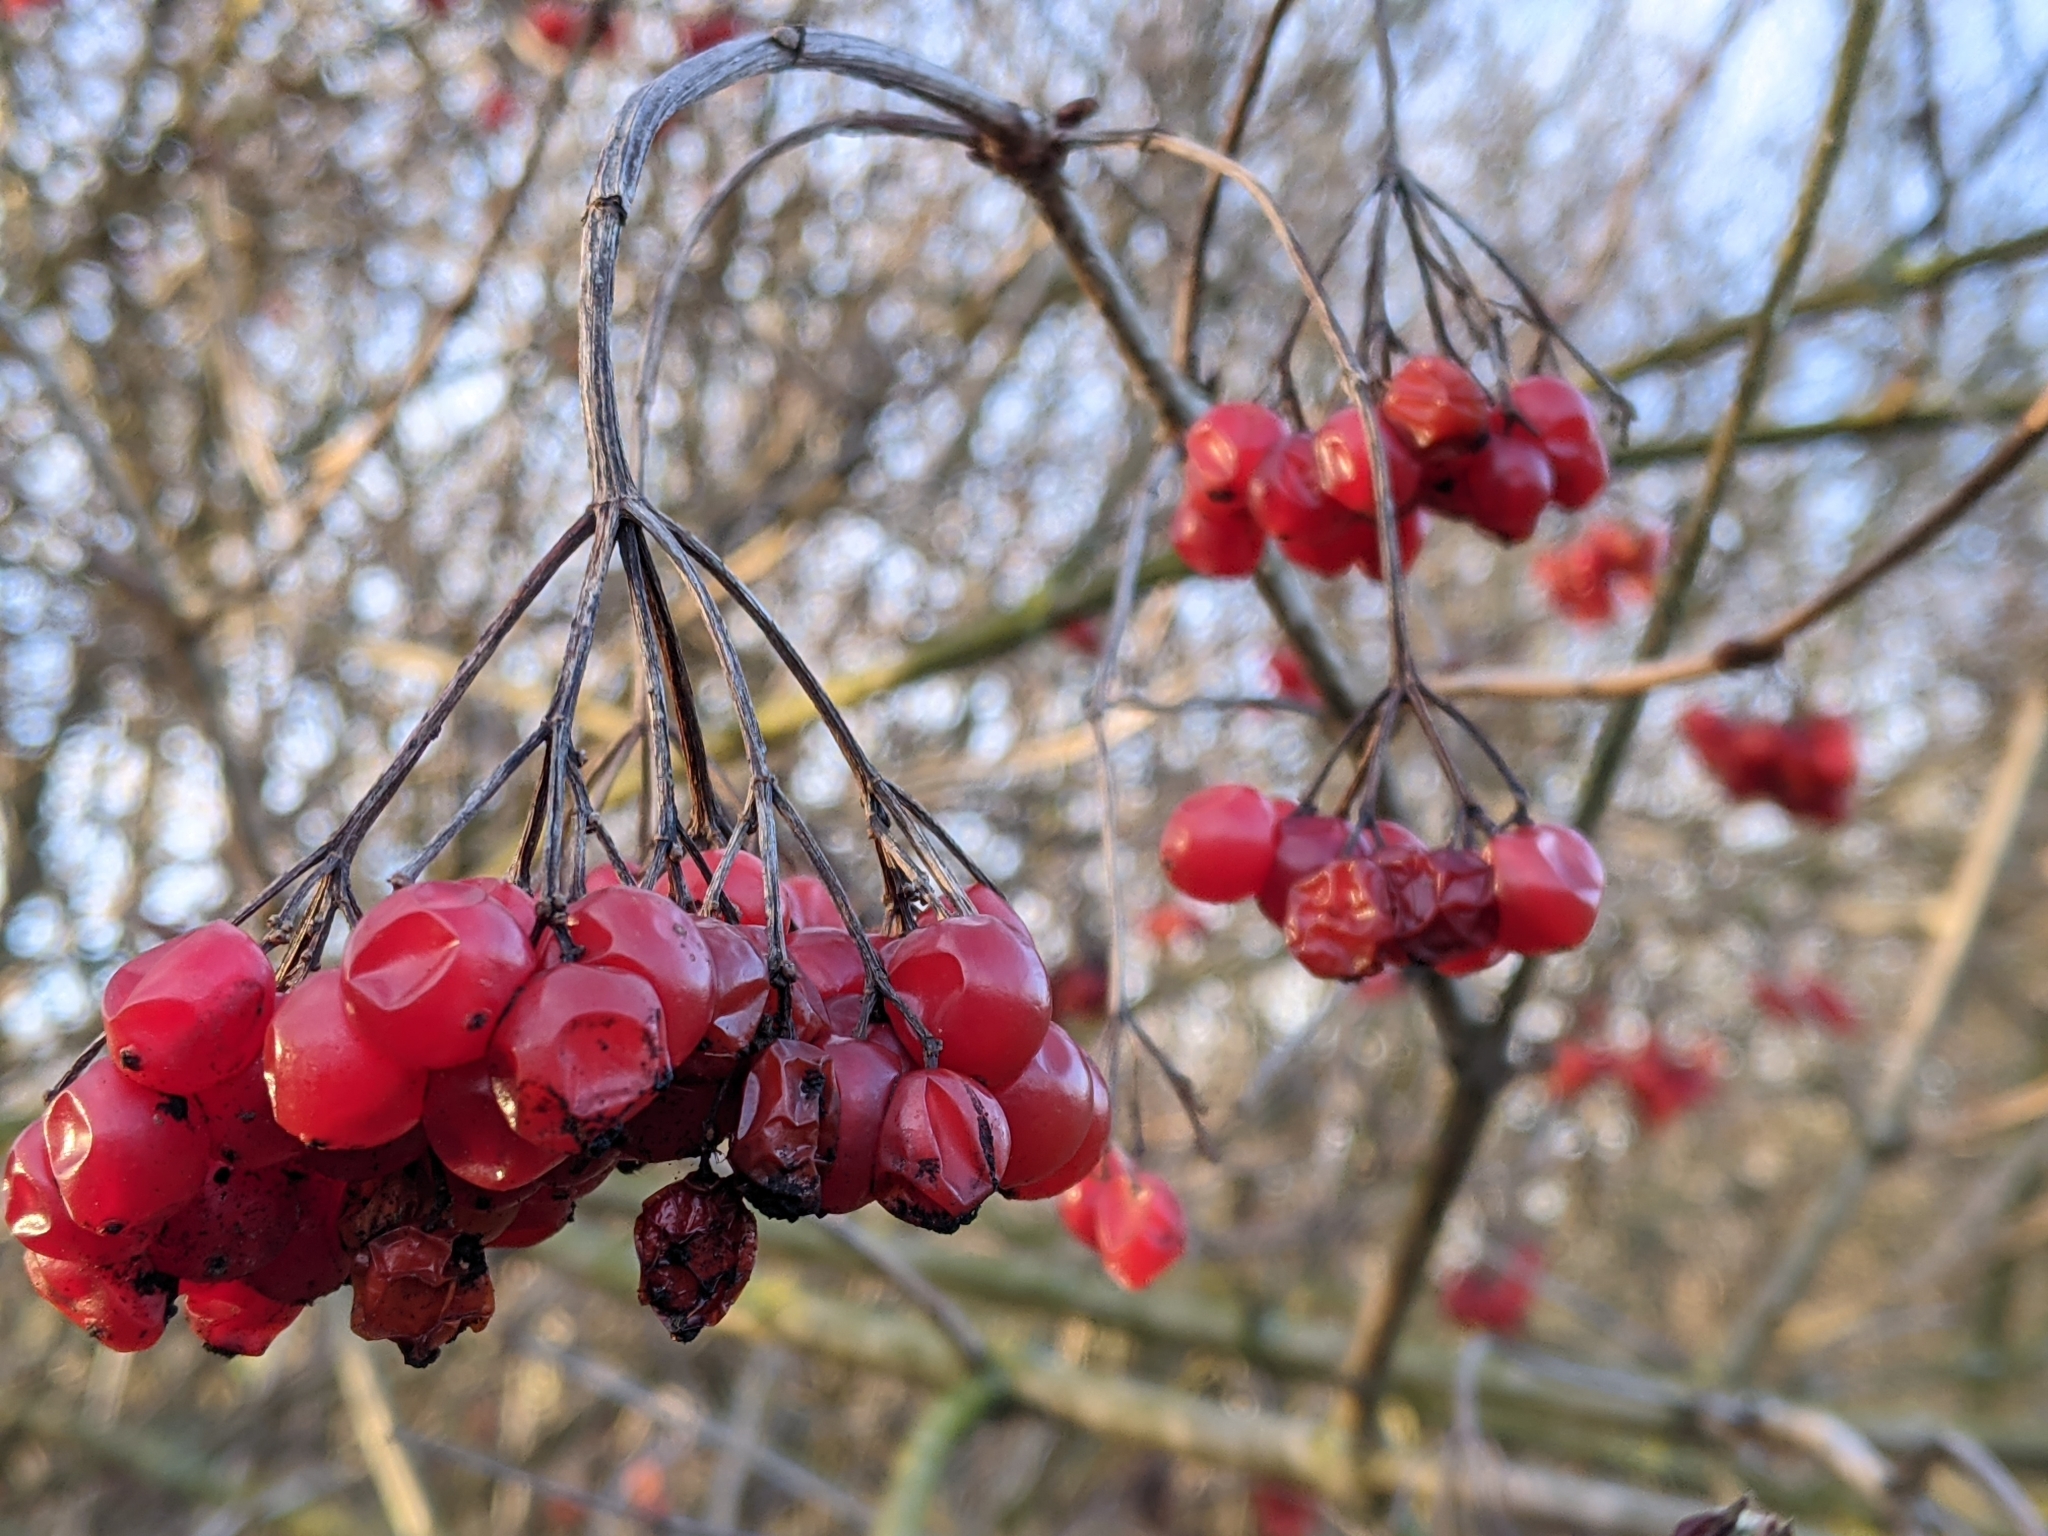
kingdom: Plantae
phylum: Tracheophyta
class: Magnoliopsida
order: Dipsacales
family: Viburnaceae
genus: Viburnum
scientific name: Viburnum opulus
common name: Guelder-rose
